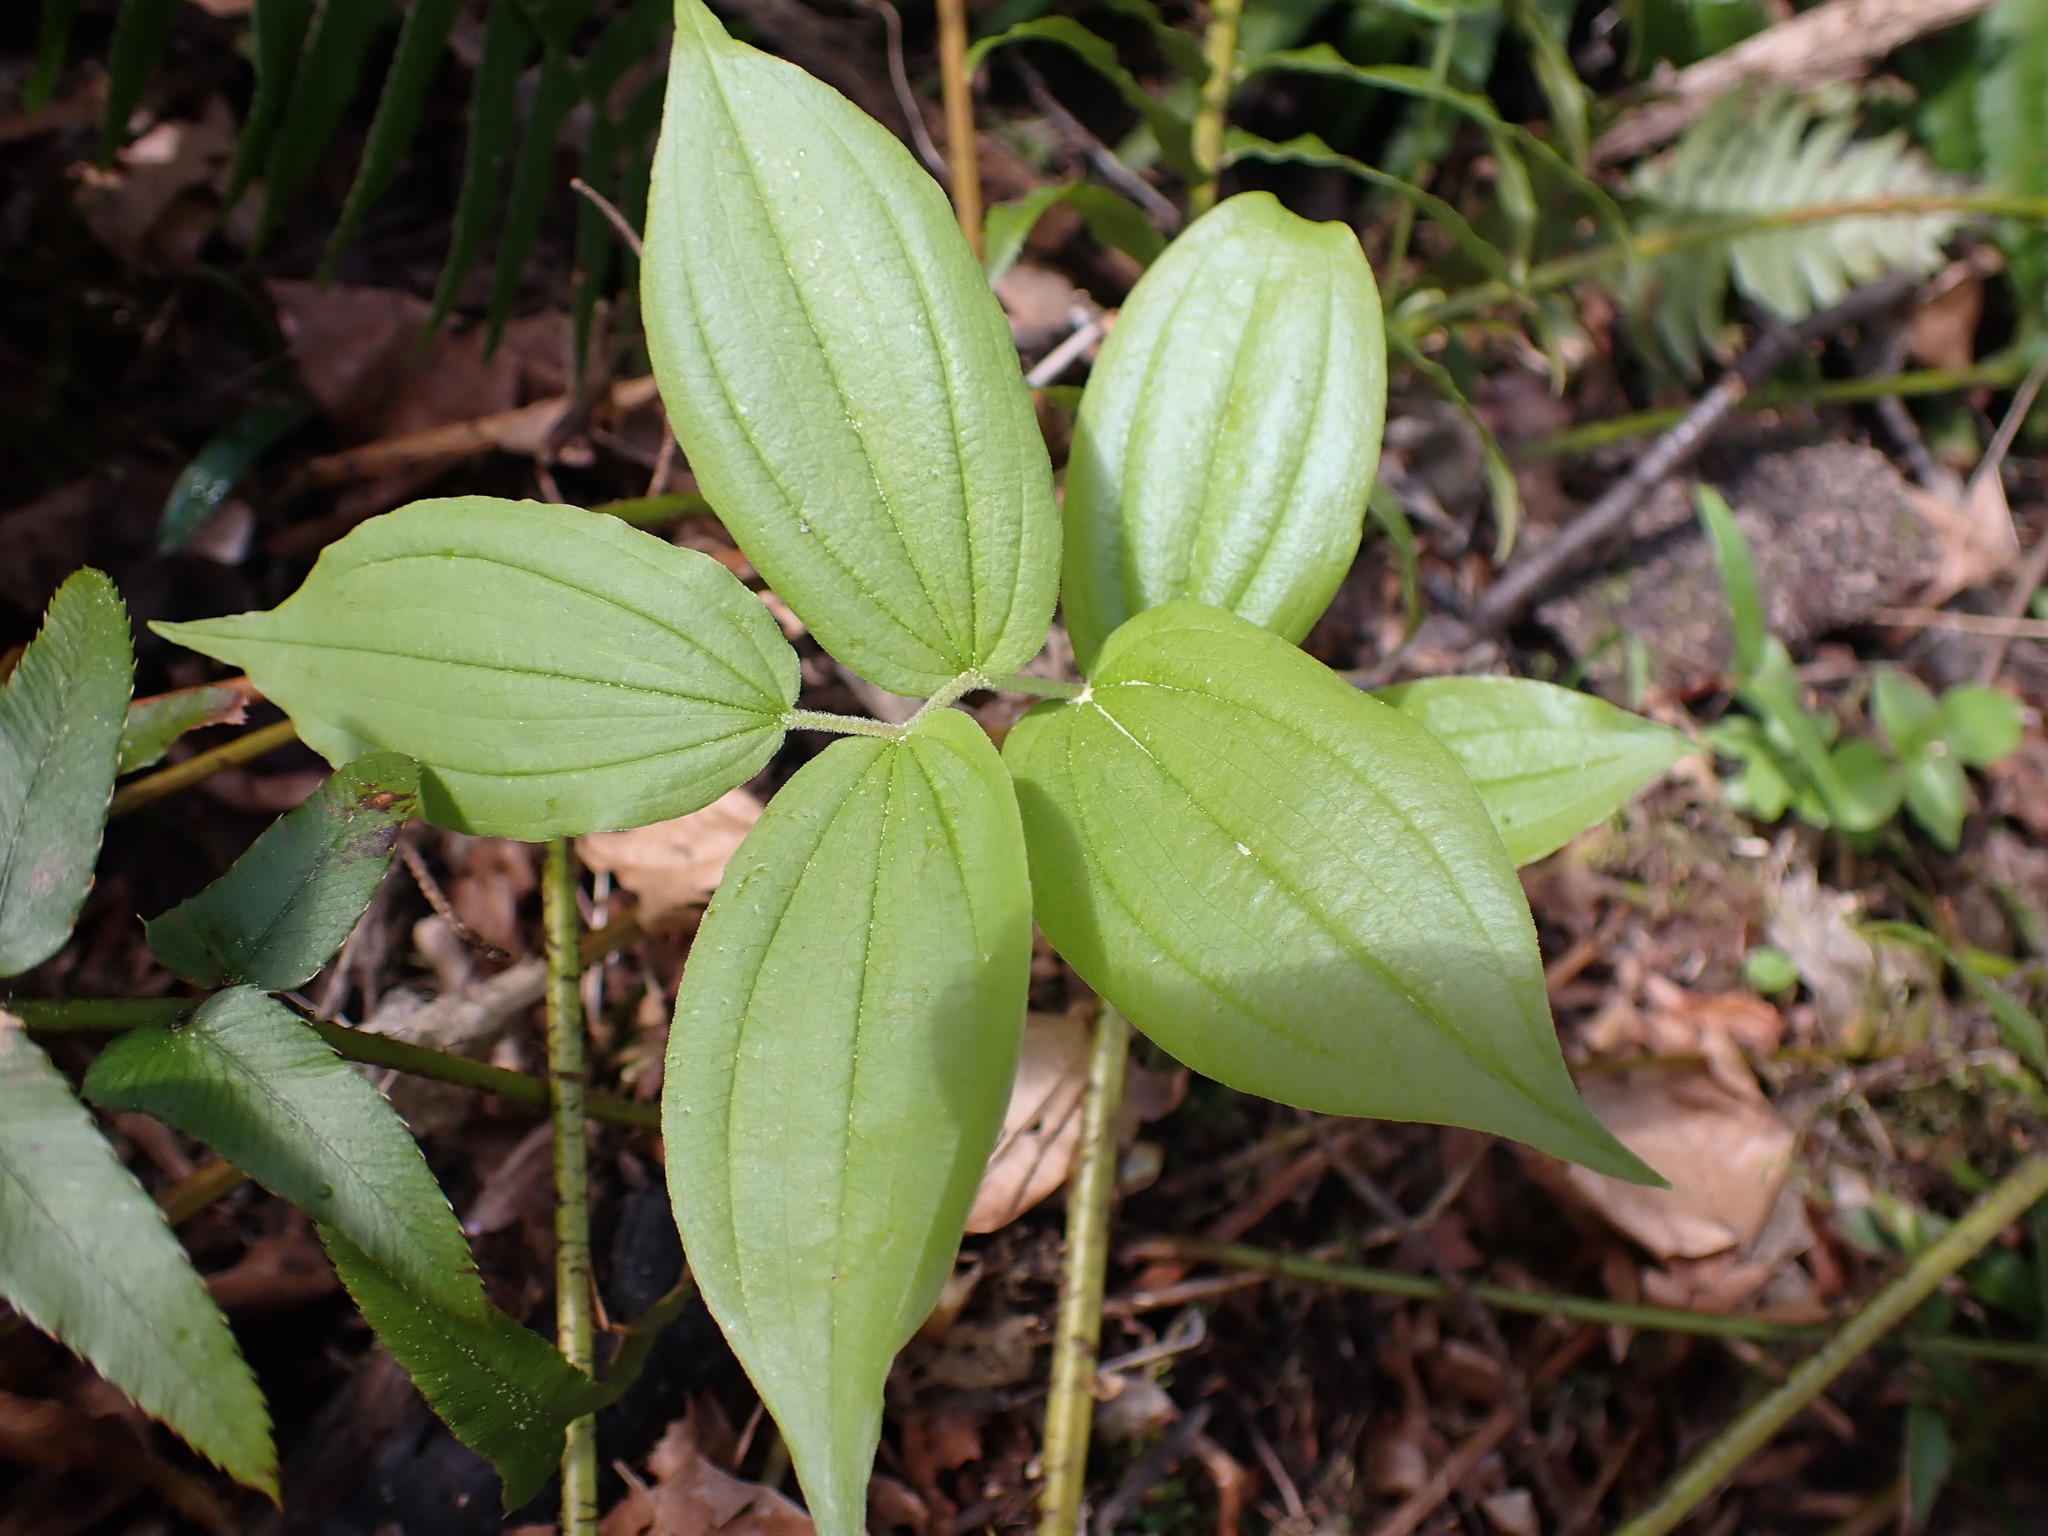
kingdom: Plantae
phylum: Tracheophyta
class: Liliopsida
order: Liliales
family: Liliaceae
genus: Prosartes
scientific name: Prosartes hookeri
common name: Fairy-bells
